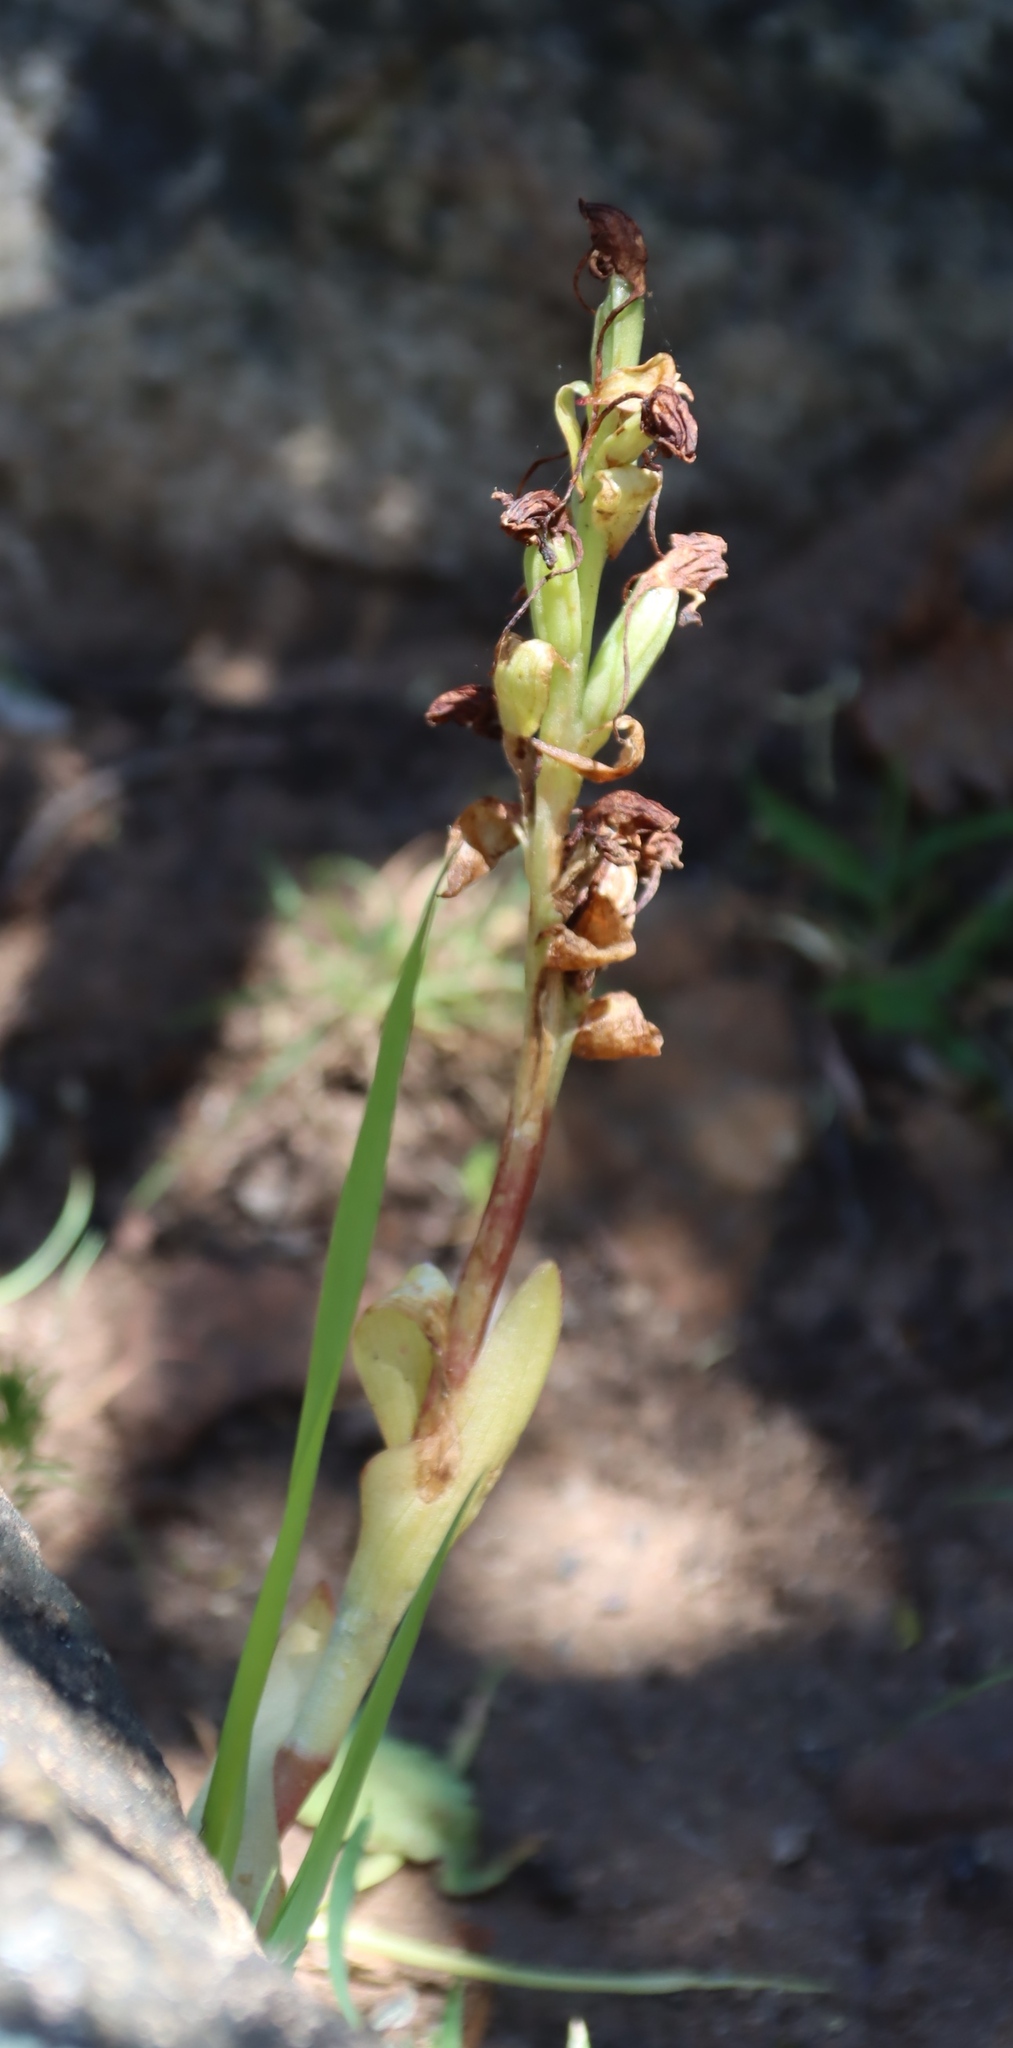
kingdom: Plantae
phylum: Tracheophyta
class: Liliopsida
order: Asparagales
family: Orchidaceae
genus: Satyrium
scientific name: Satyrium odorum
